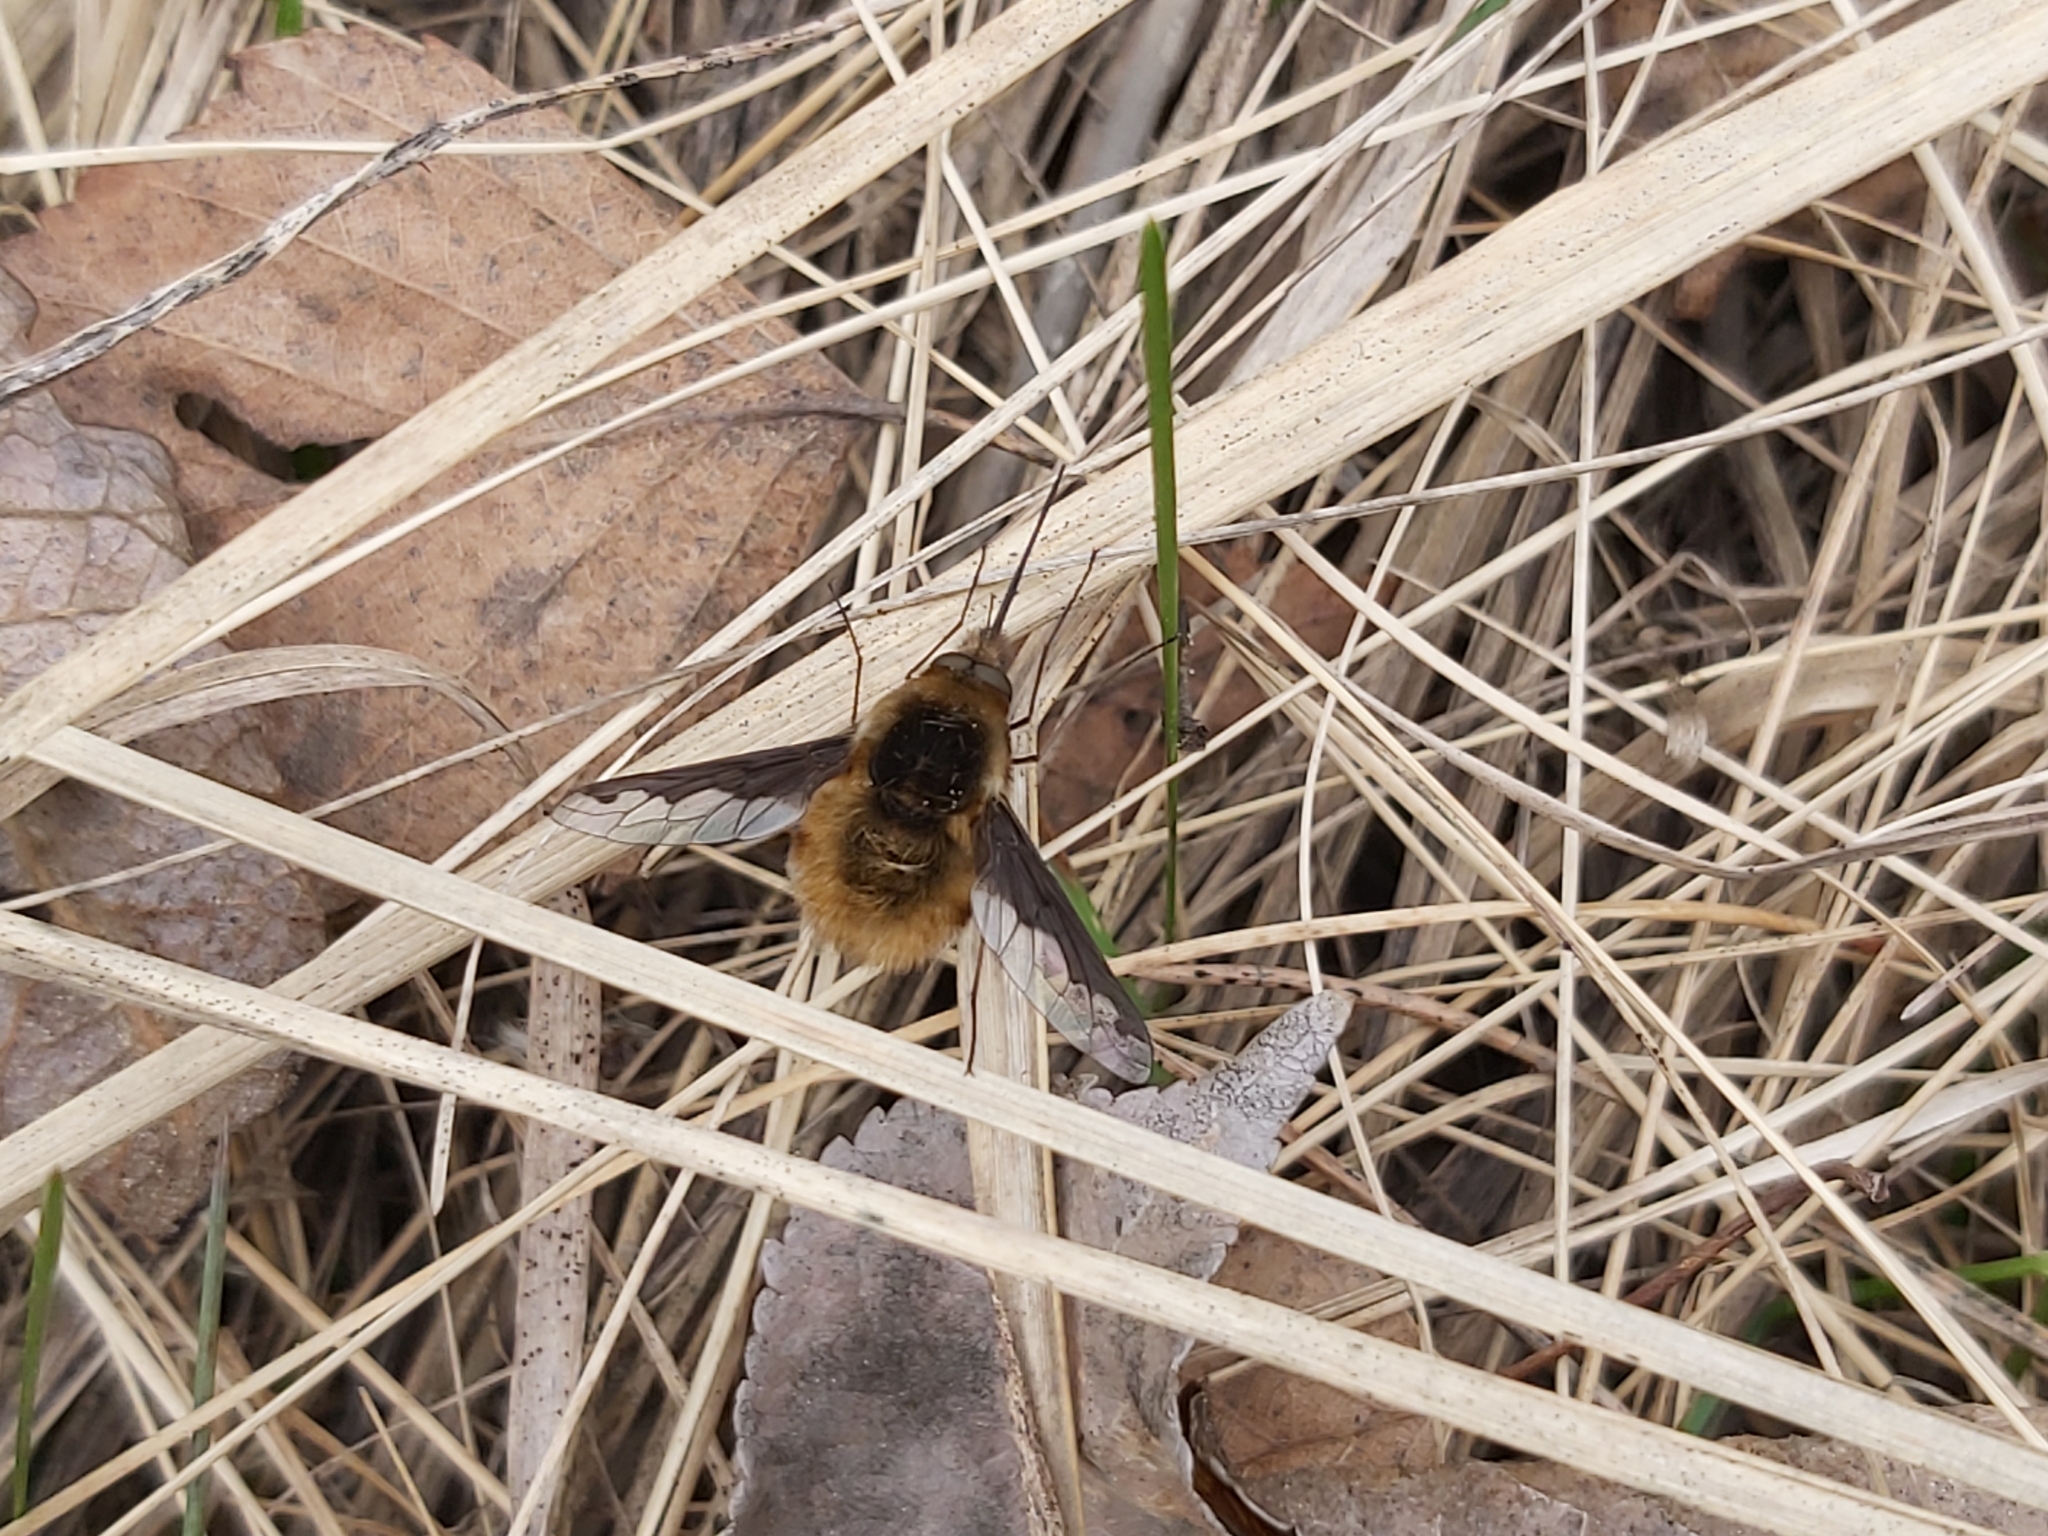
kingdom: Animalia
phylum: Arthropoda
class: Insecta
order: Diptera
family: Bombyliidae
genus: Bombylius
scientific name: Bombylius major
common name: Bee fly
